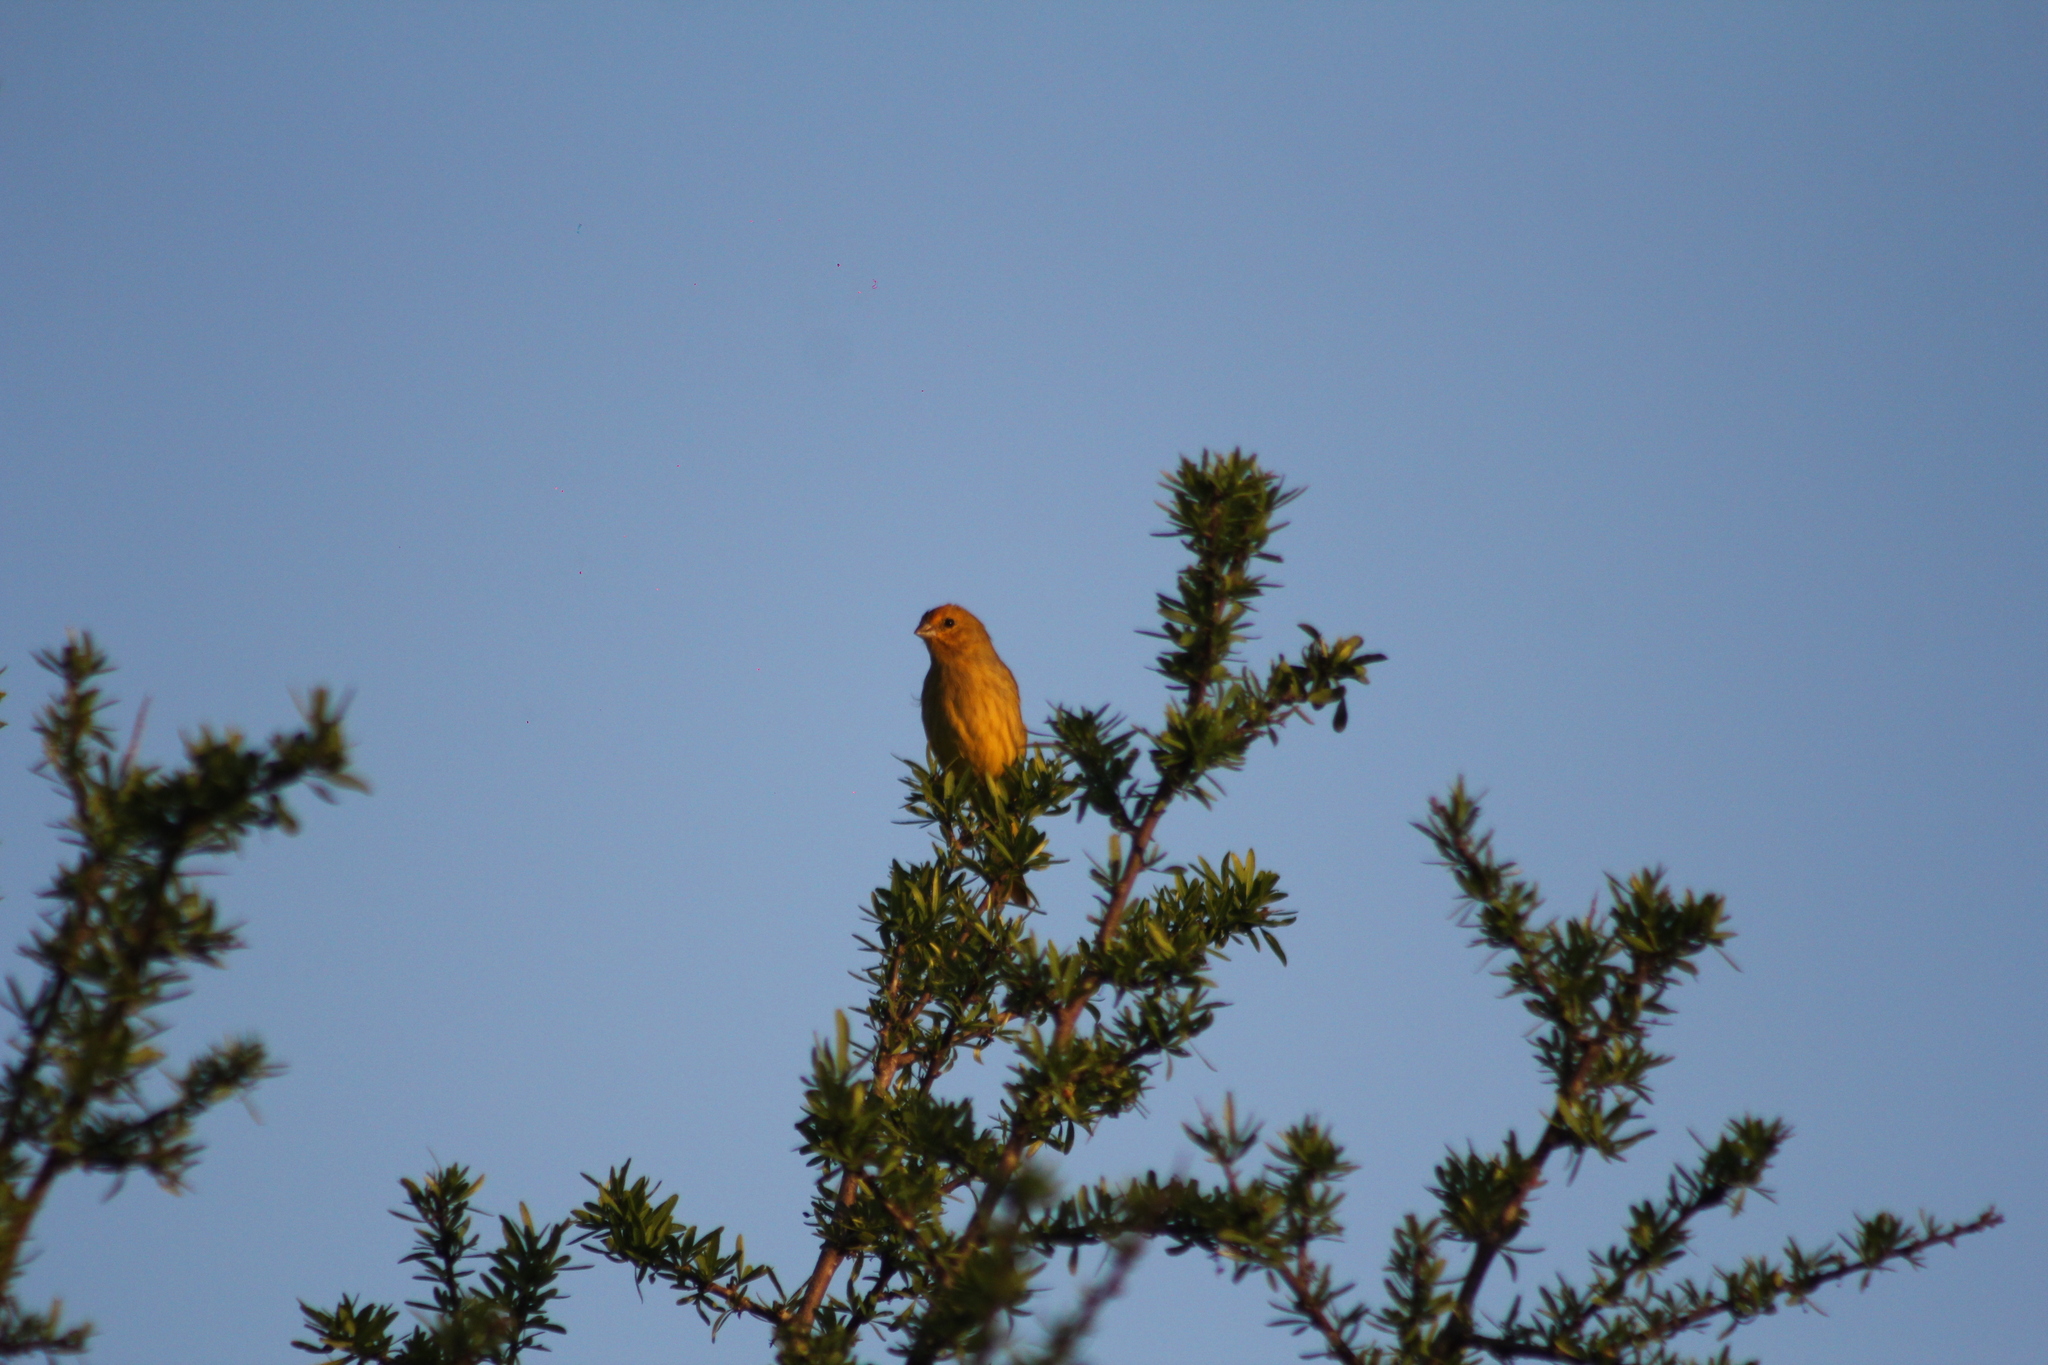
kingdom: Animalia
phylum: Chordata
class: Aves
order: Passeriformes
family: Thraupidae
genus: Sicalis
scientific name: Sicalis flaveola
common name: Saffron finch
